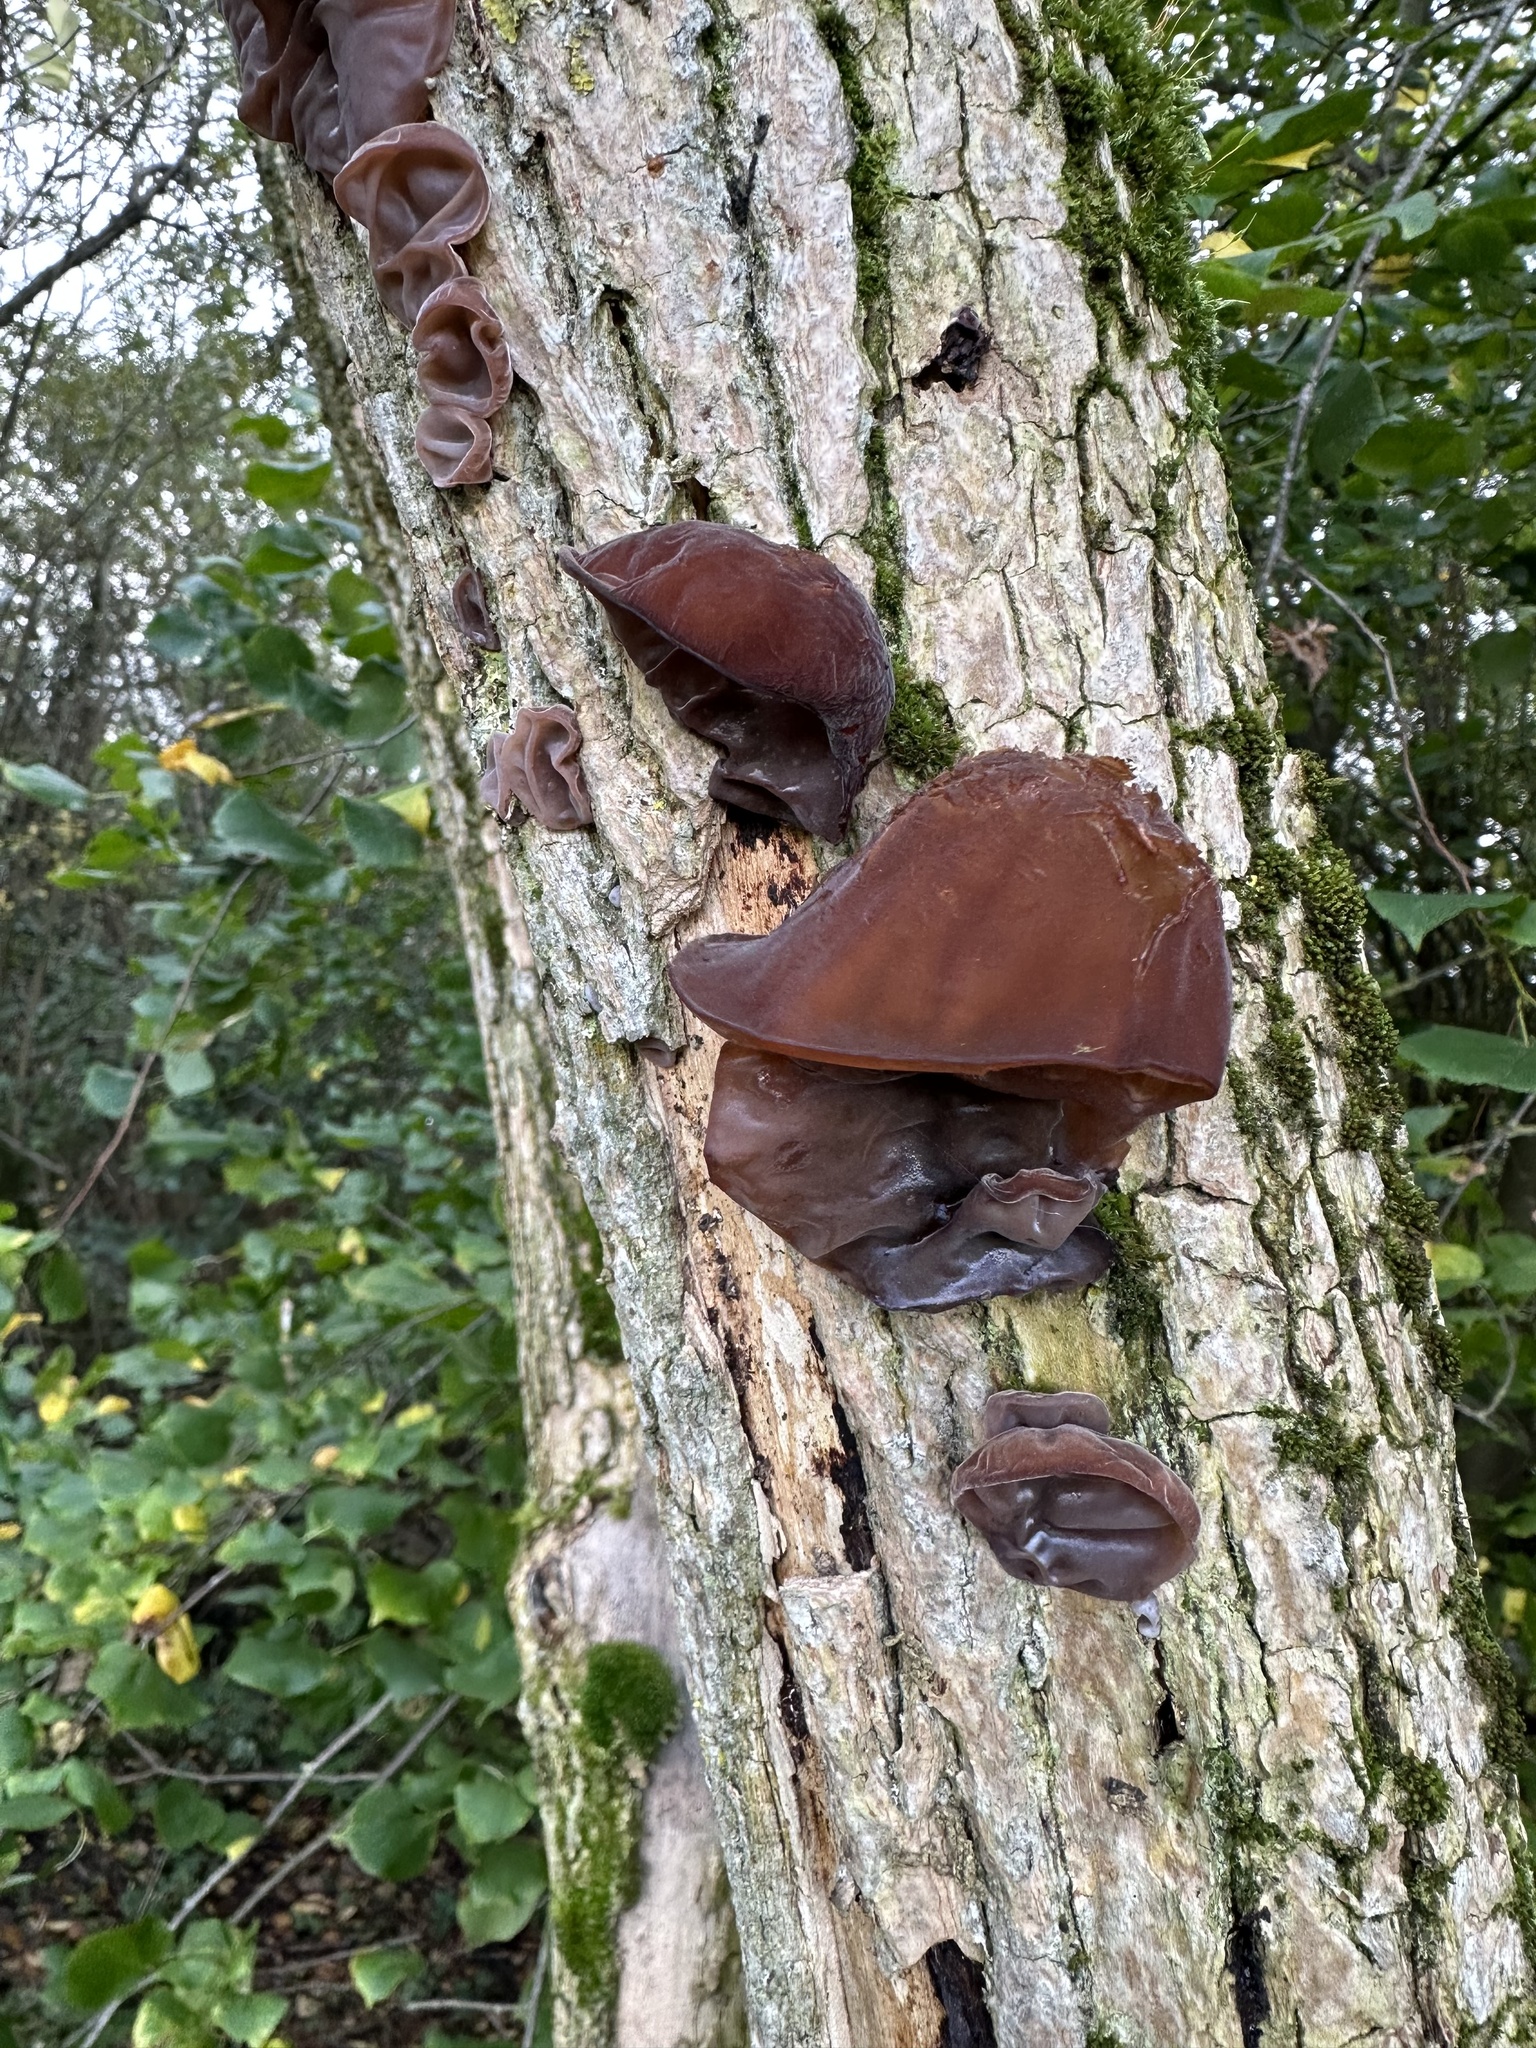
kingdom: Fungi
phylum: Basidiomycota
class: Agaricomycetes
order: Auriculariales
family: Auriculariaceae
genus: Auricularia
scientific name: Auricularia auricula-judae
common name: Jelly ear
